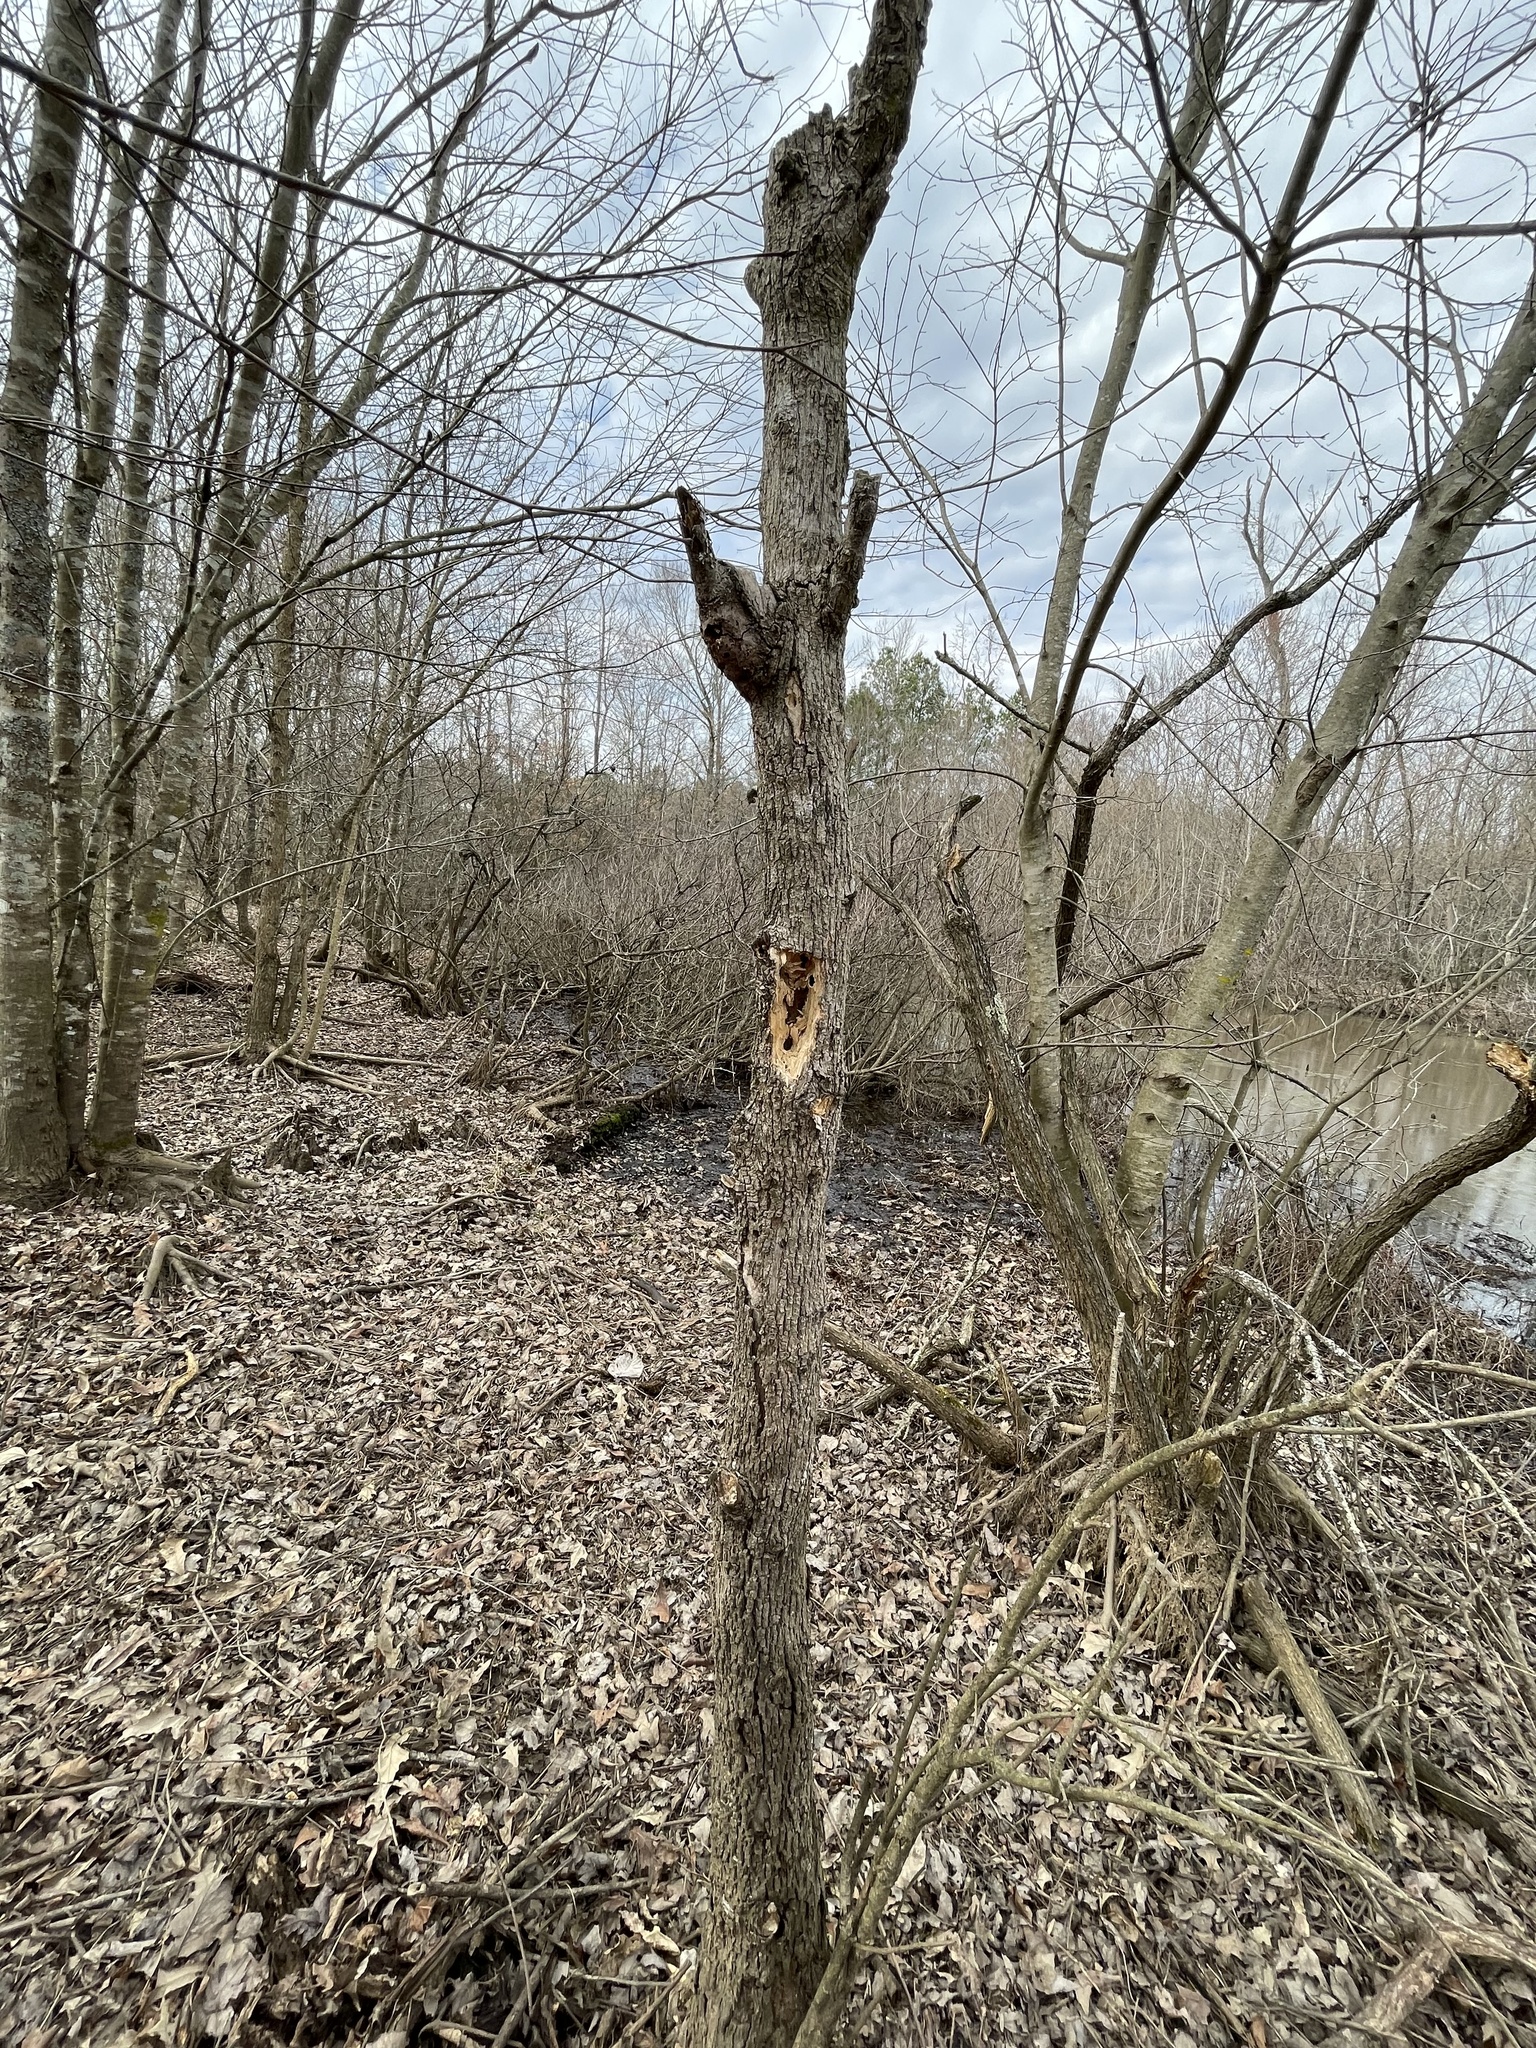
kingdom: Animalia
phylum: Chordata
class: Aves
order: Piciformes
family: Picidae
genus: Dryocopus
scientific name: Dryocopus pileatus
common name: Pileated woodpecker
